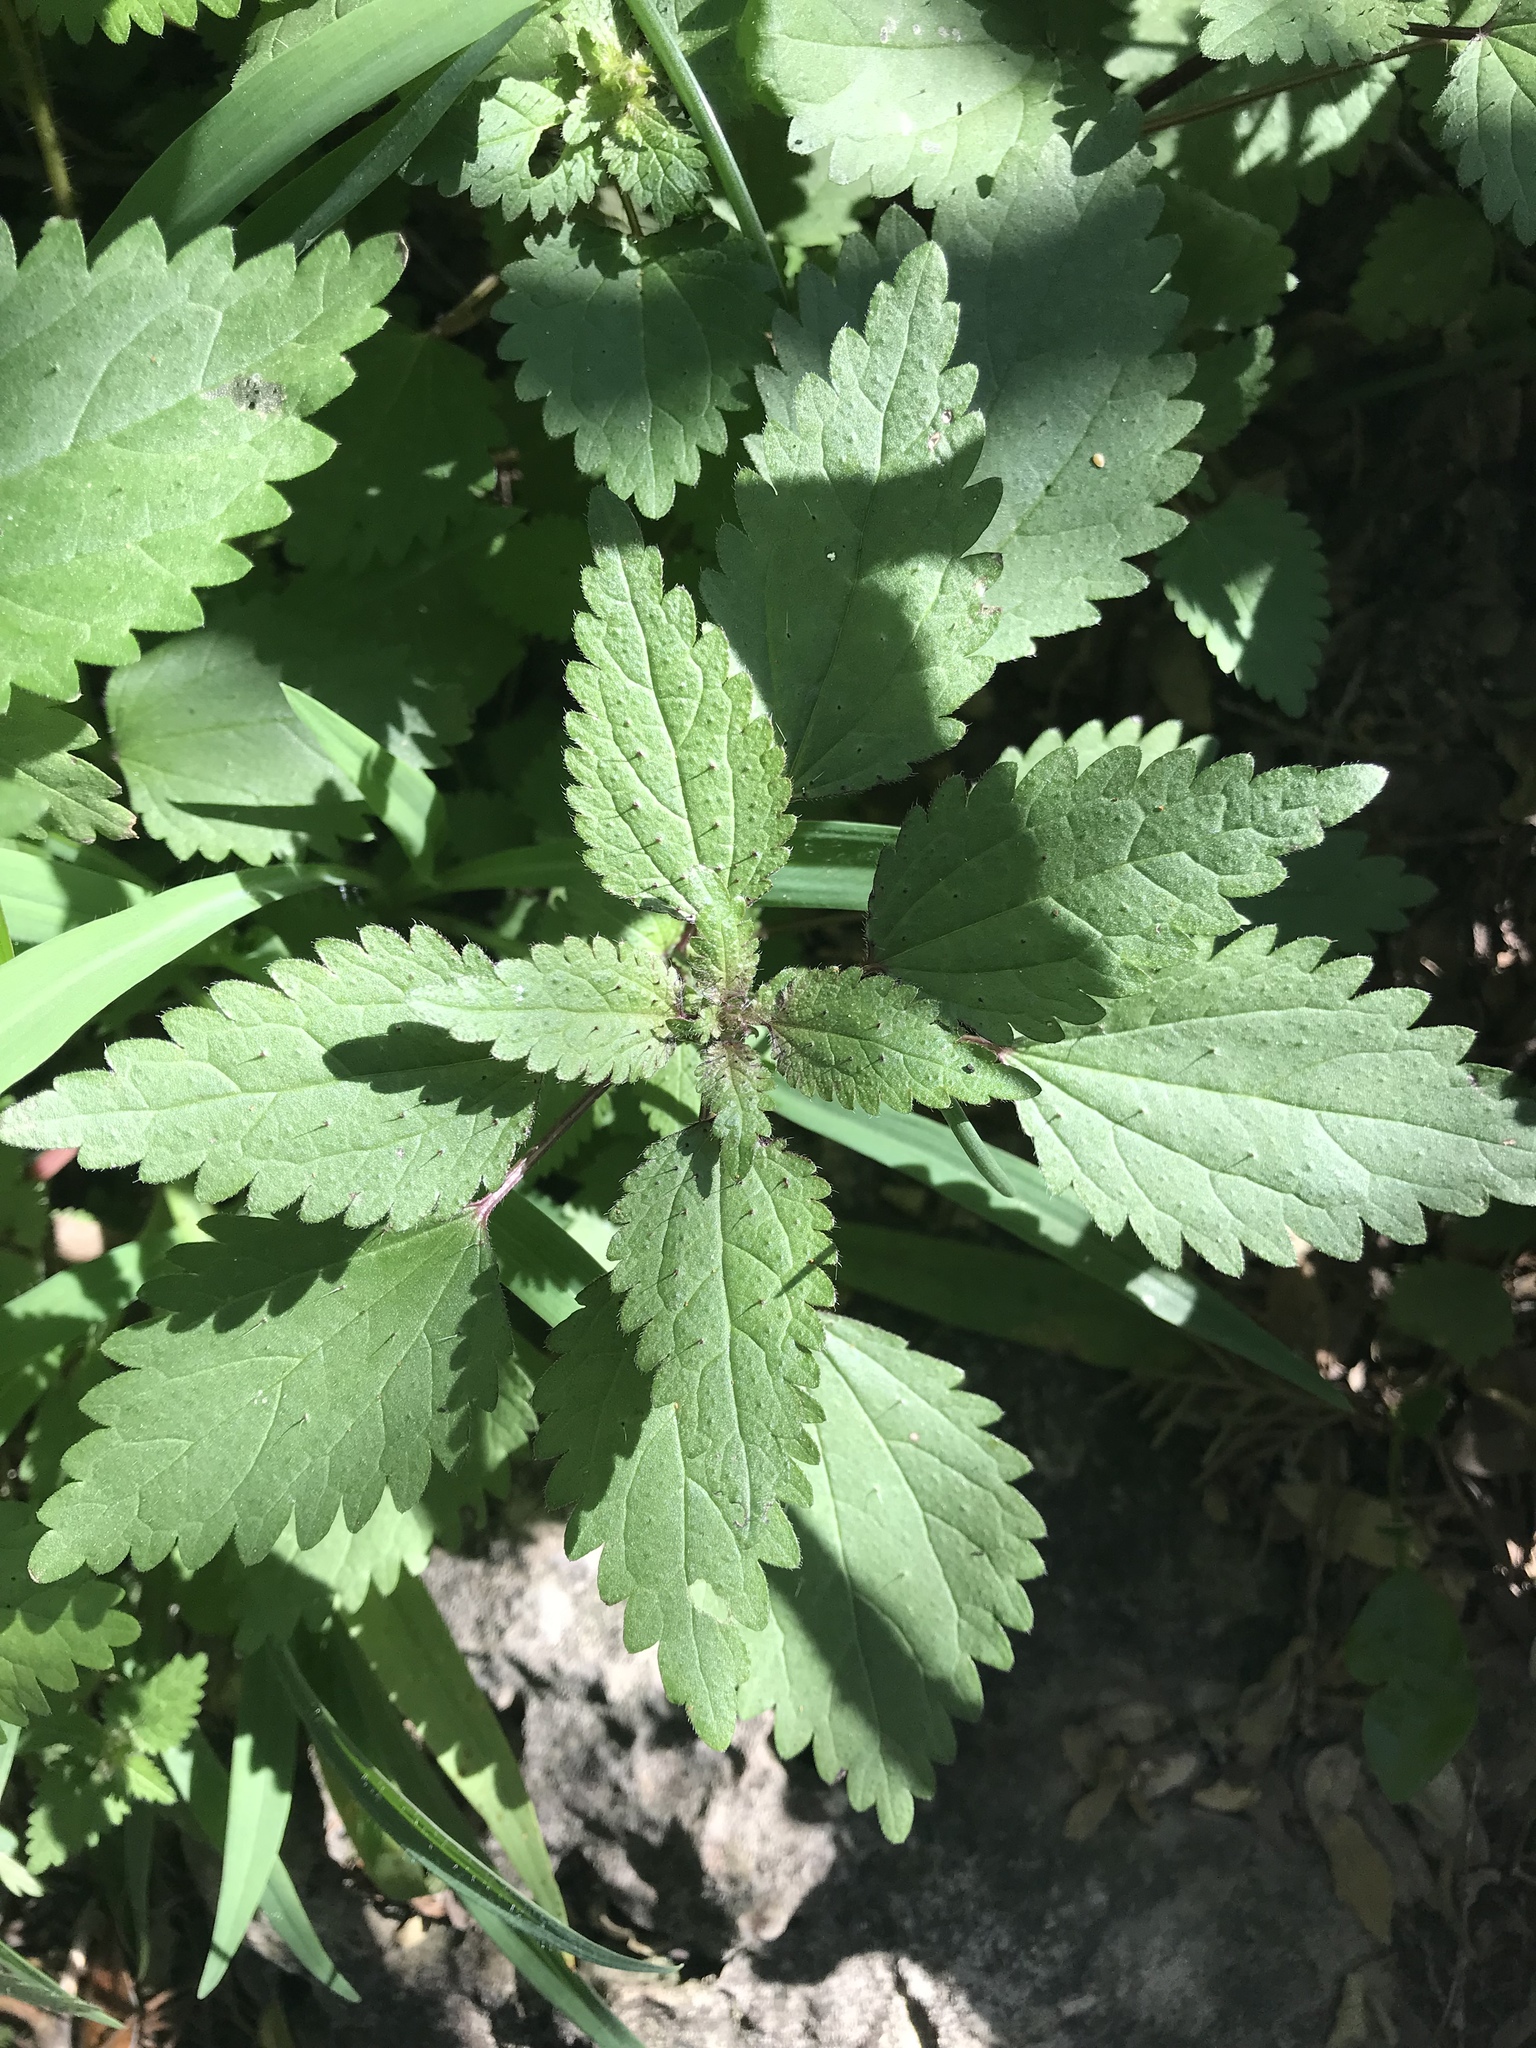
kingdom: Plantae
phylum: Tracheophyta
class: Magnoliopsida
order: Rosales
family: Urticaceae
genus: Urtica
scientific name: Urtica chamaedryoides
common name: Heart-leaf nettle
